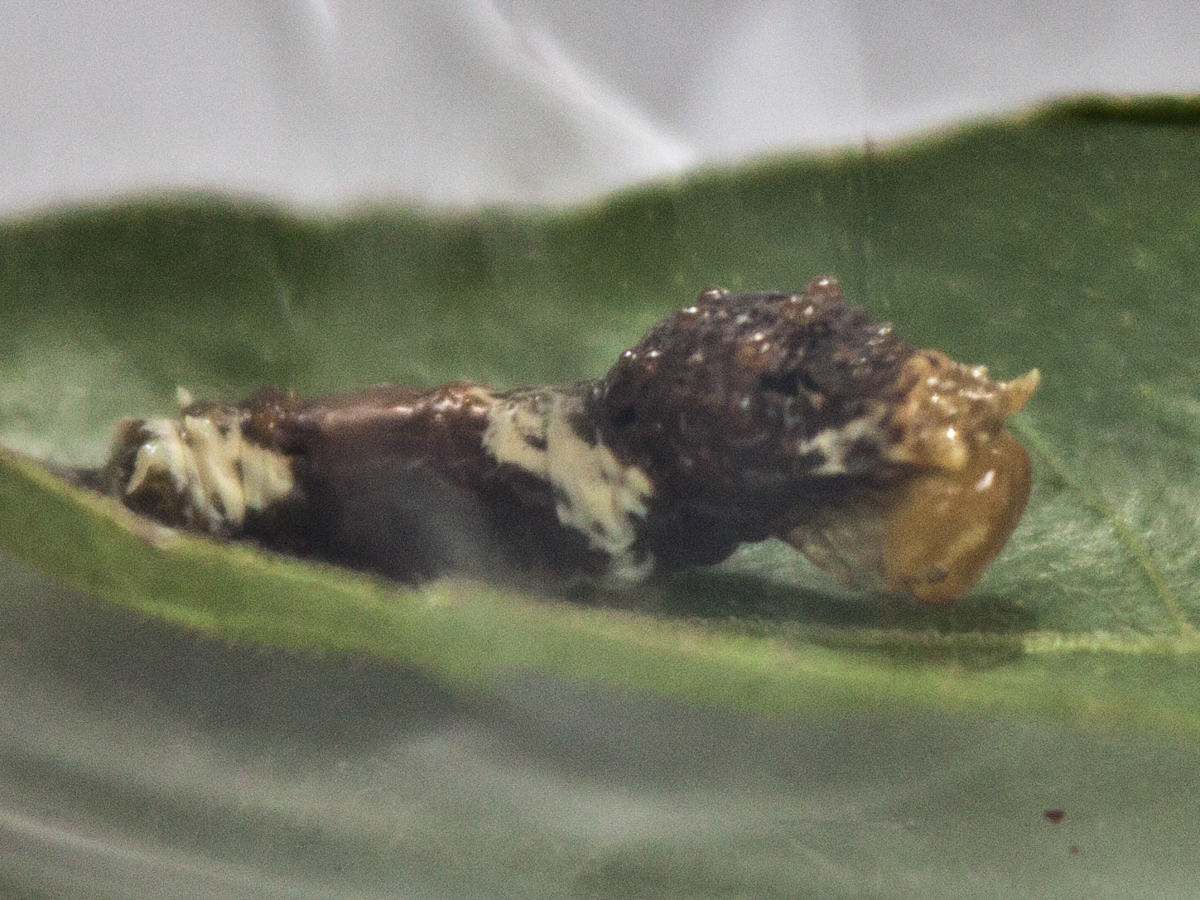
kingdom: Animalia
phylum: Arthropoda
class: Insecta
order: Lepidoptera
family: Papilionidae
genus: Papilio
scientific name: Papilio polytes
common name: Common mormon
